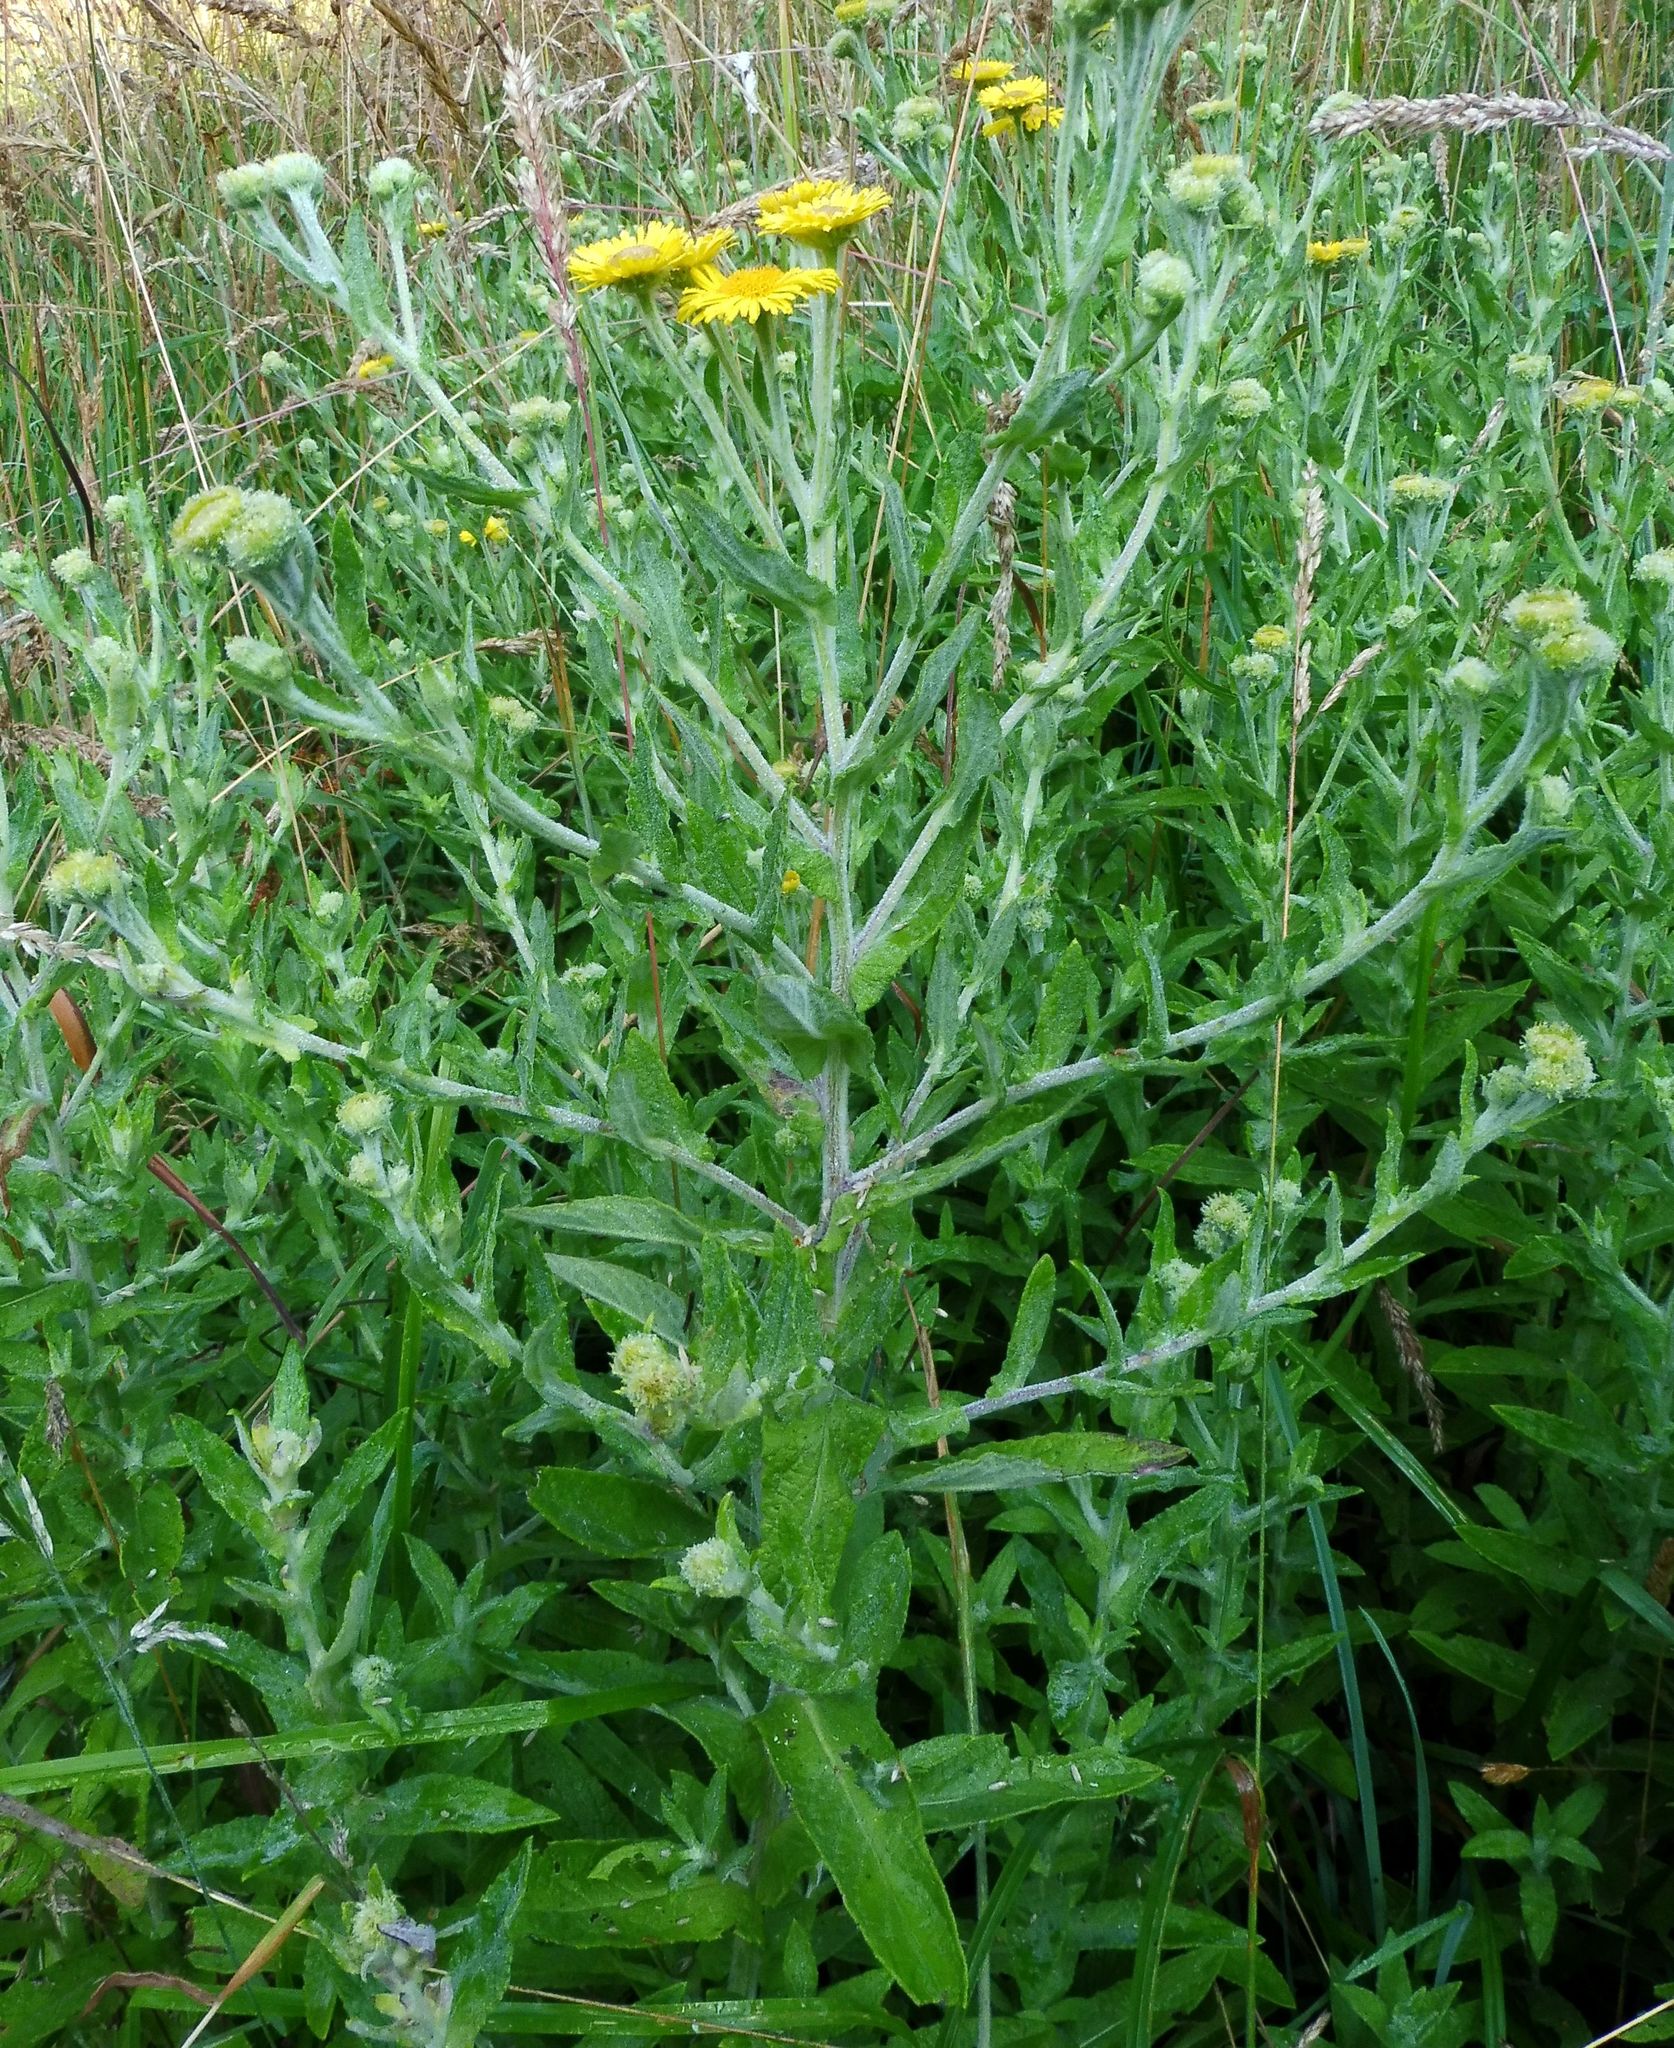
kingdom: Plantae
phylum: Tracheophyta
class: Magnoliopsida
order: Asterales
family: Asteraceae
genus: Pulicaria
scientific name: Pulicaria dysenterica
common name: Common fleabane
